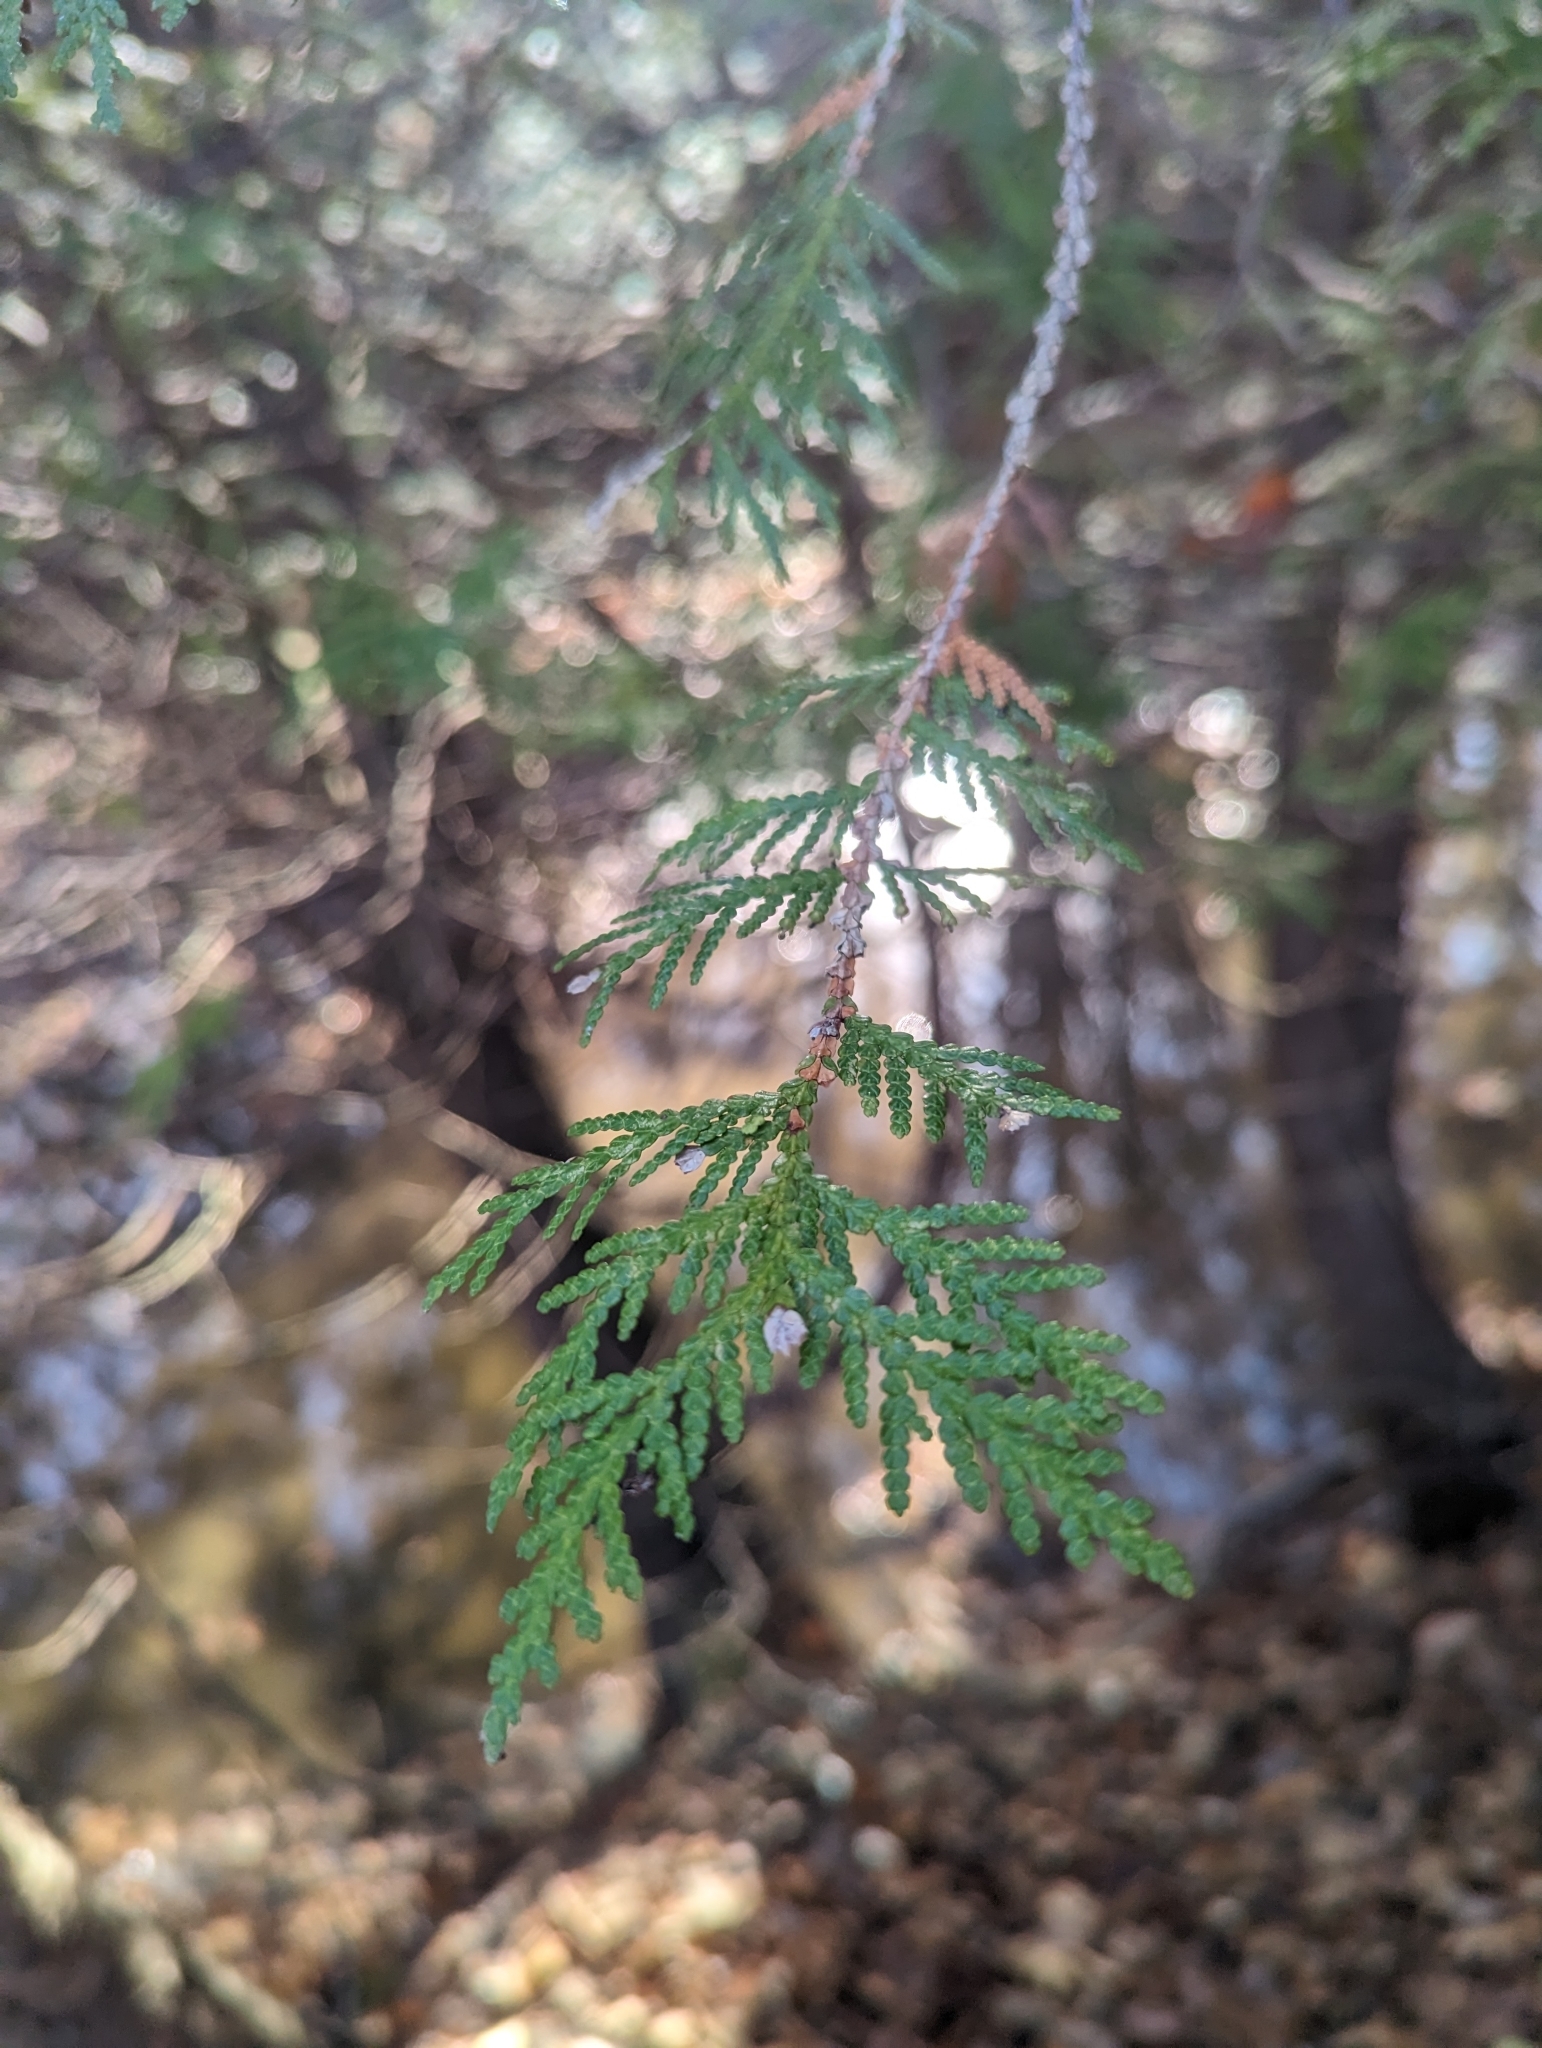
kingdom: Plantae
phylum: Tracheophyta
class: Pinopsida
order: Pinales
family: Cupressaceae
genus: Thuja
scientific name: Thuja occidentalis
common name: Northern white-cedar
